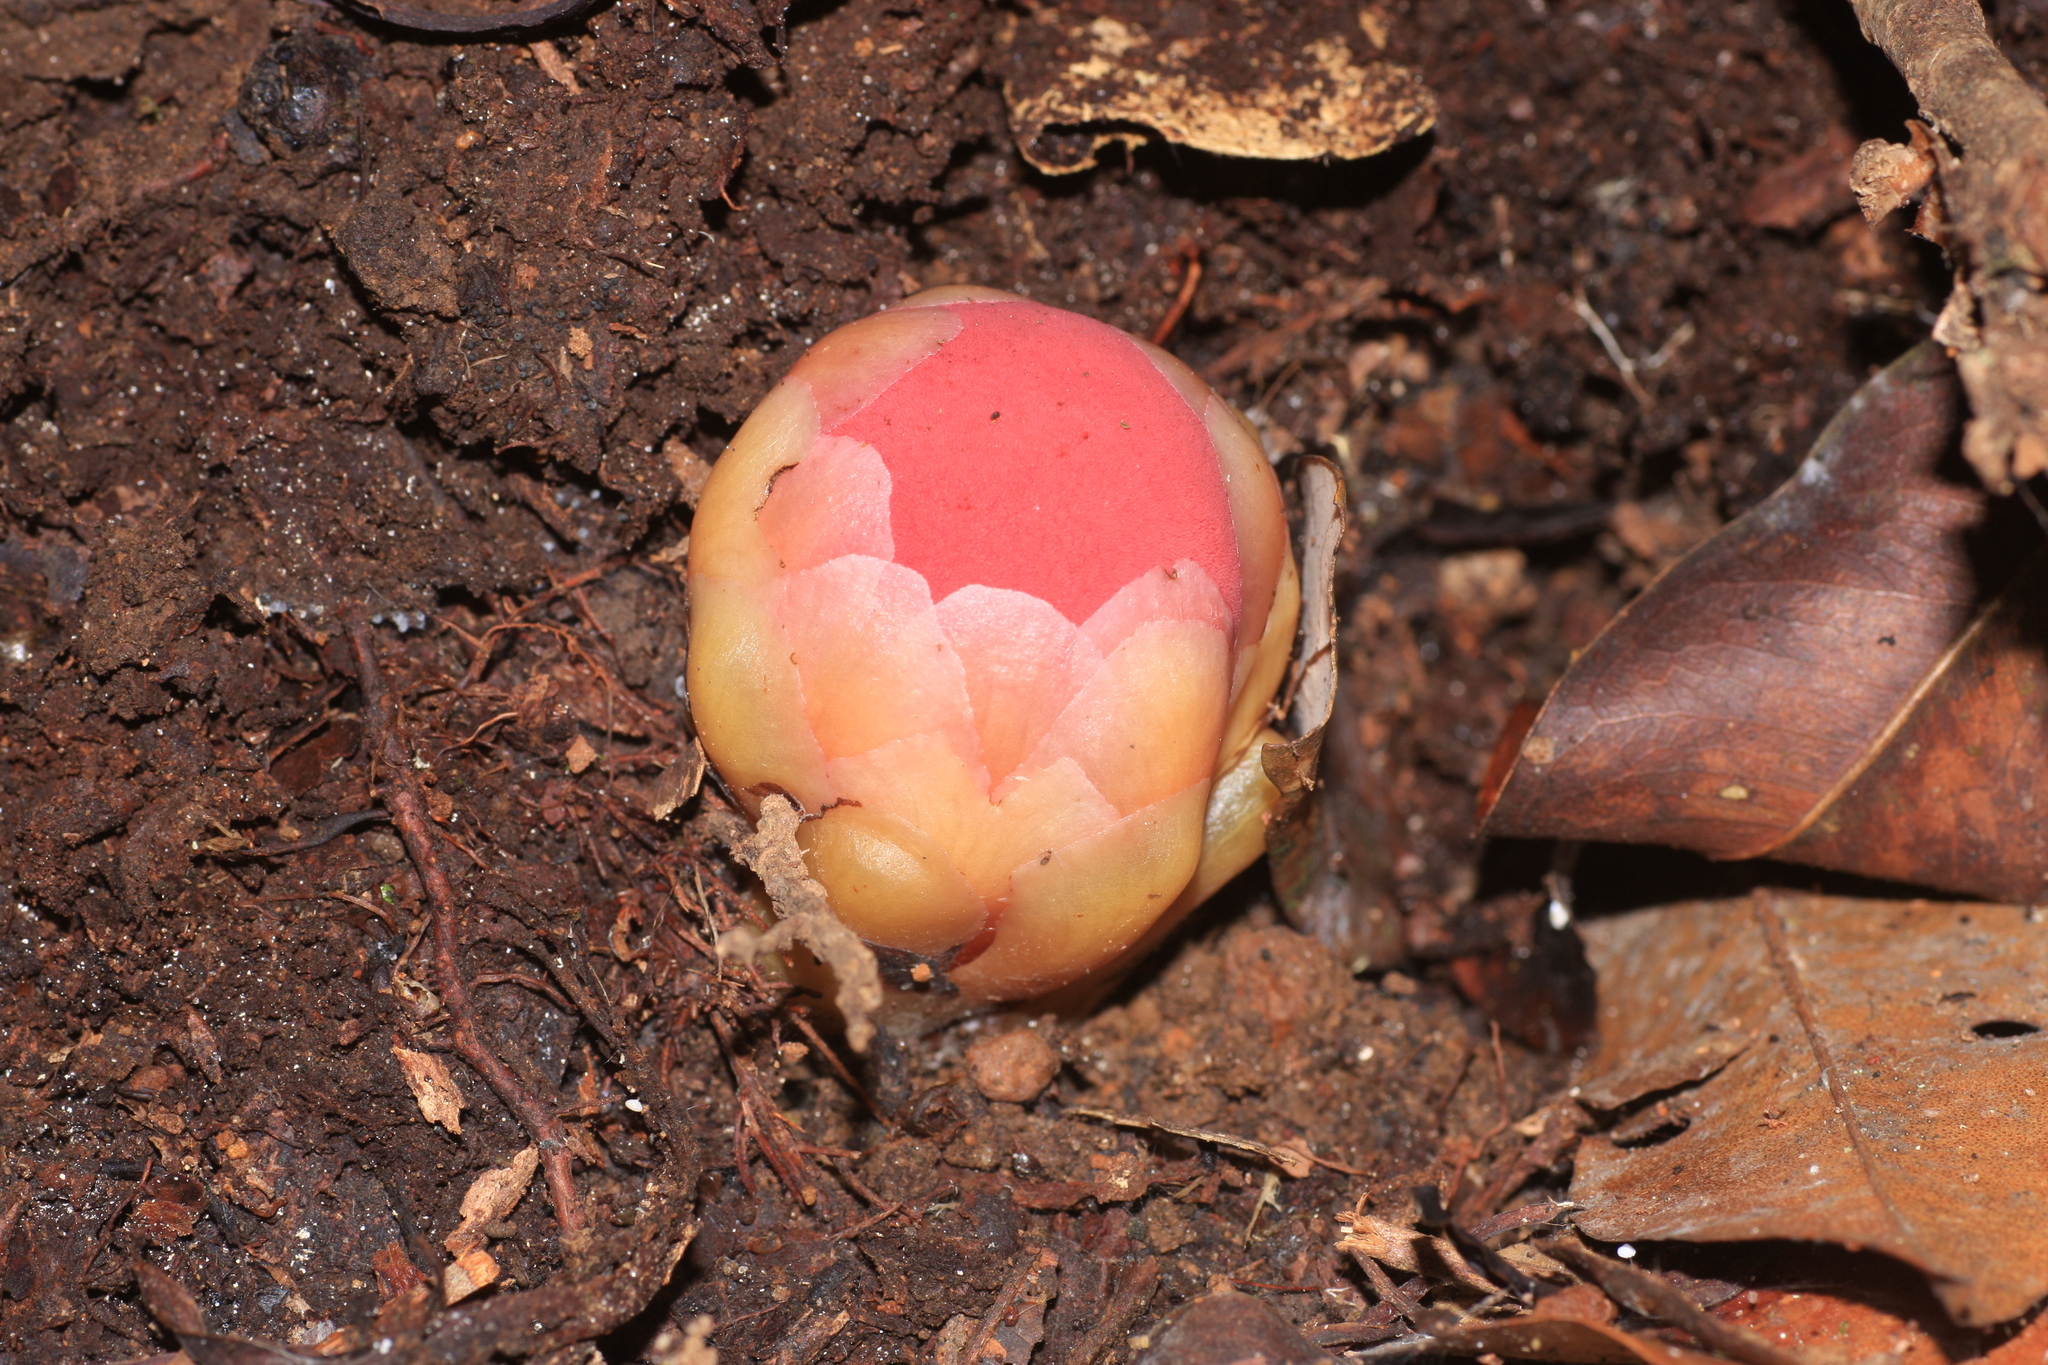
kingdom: Plantae
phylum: Tracheophyta
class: Magnoliopsida
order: Santalales
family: Balanophoraceae
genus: Balanophora
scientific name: Balanophora fungosa
